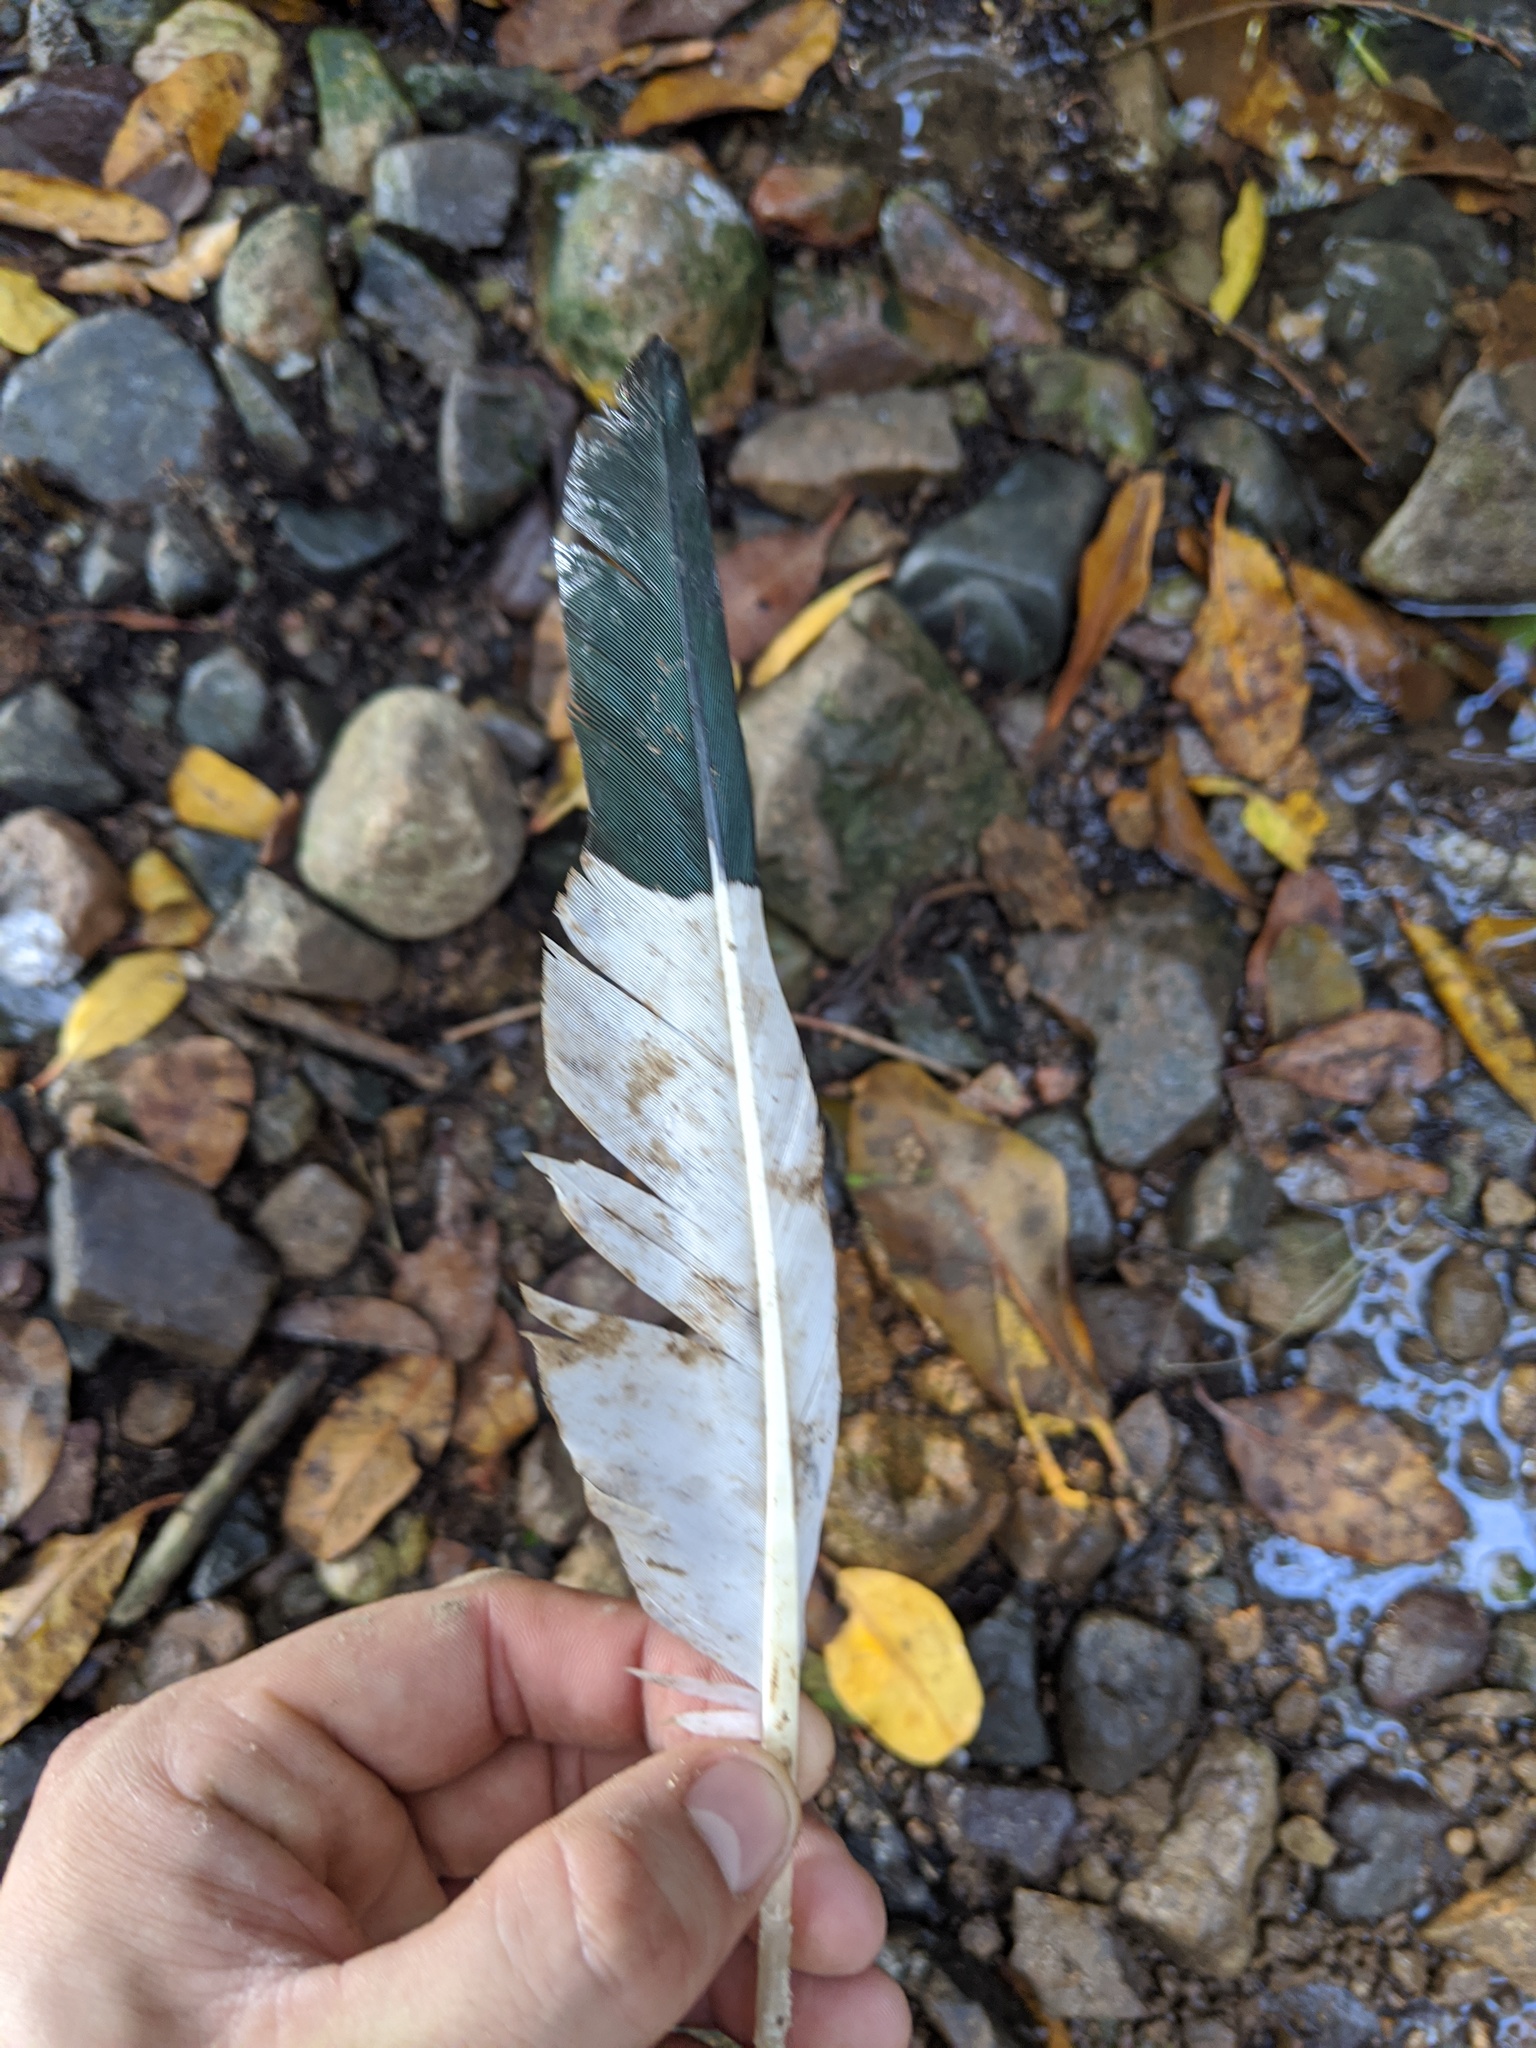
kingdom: Animalia
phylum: Chordata
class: Aves
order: Pelecaniformes
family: Threskiornithidae
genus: Eudocimus
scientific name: Eudocimus albus
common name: White ibis
